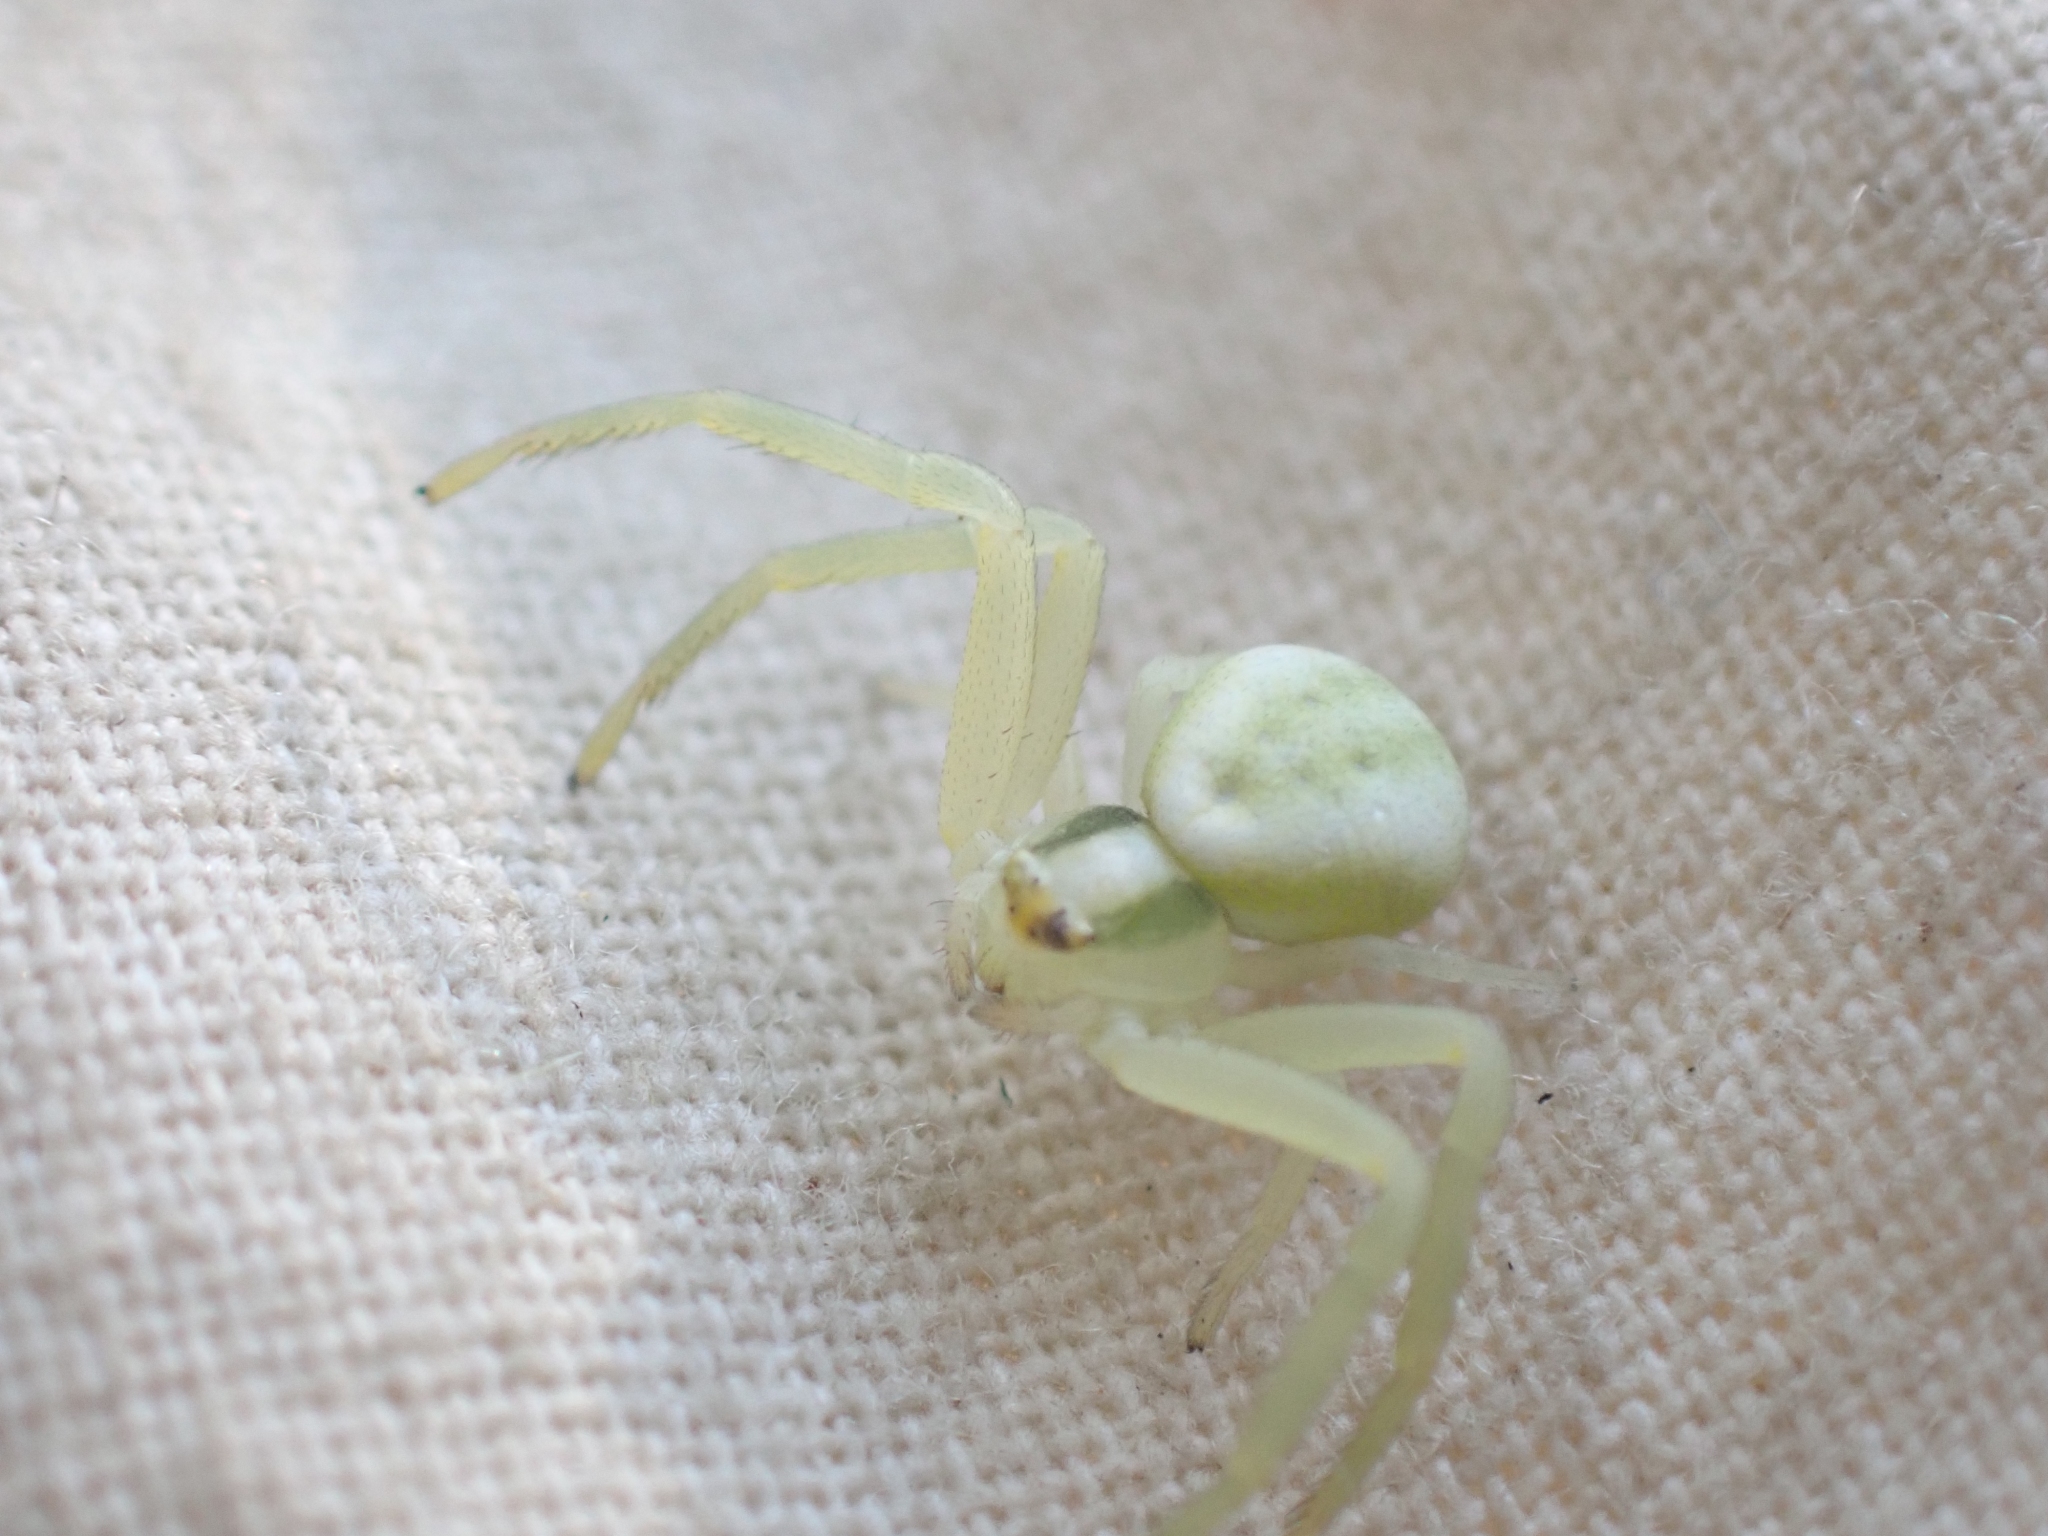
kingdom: Animalia
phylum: Arthropoda
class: Arachnida
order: Araneae
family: Thomisidae
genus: Misumena
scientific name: Misumena vatia
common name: Goldenrod crab spider
